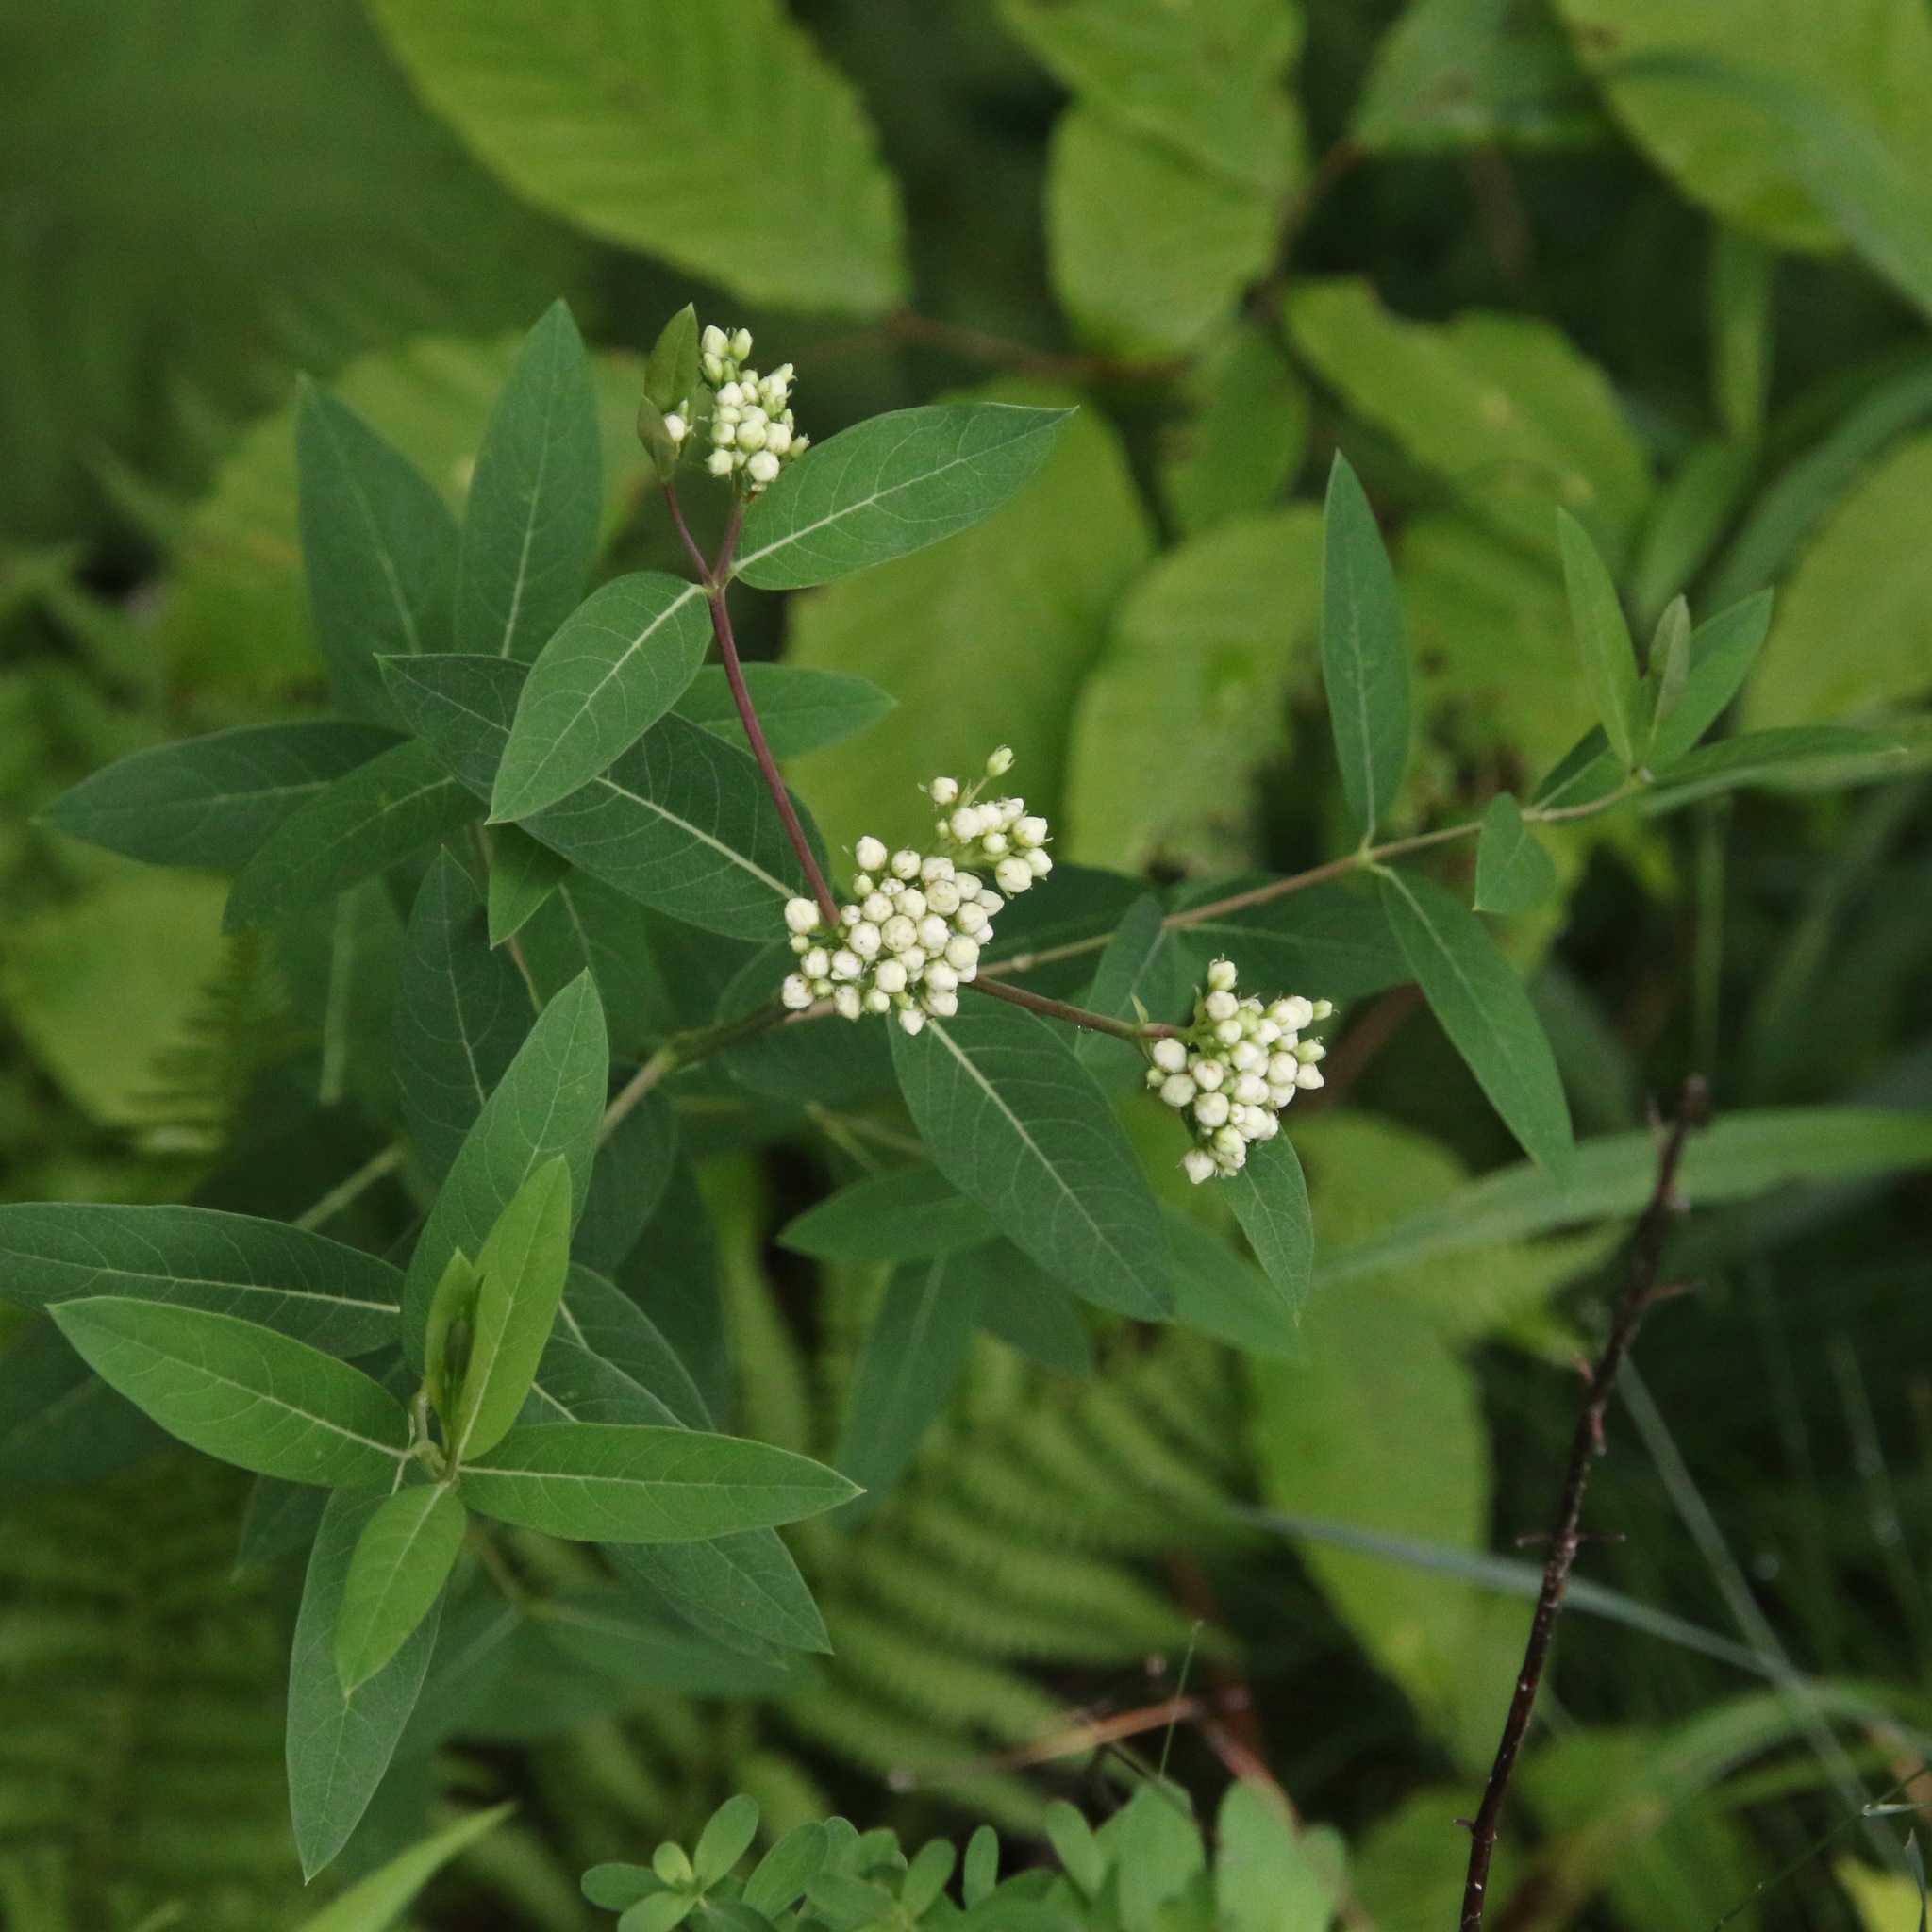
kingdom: Plantae
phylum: Tracheophyta
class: Magnoliopsida
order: Gentianales
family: Apocynaceae
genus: Apocynum
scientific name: Apocynum cannabinum
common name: Hemp dogbane
